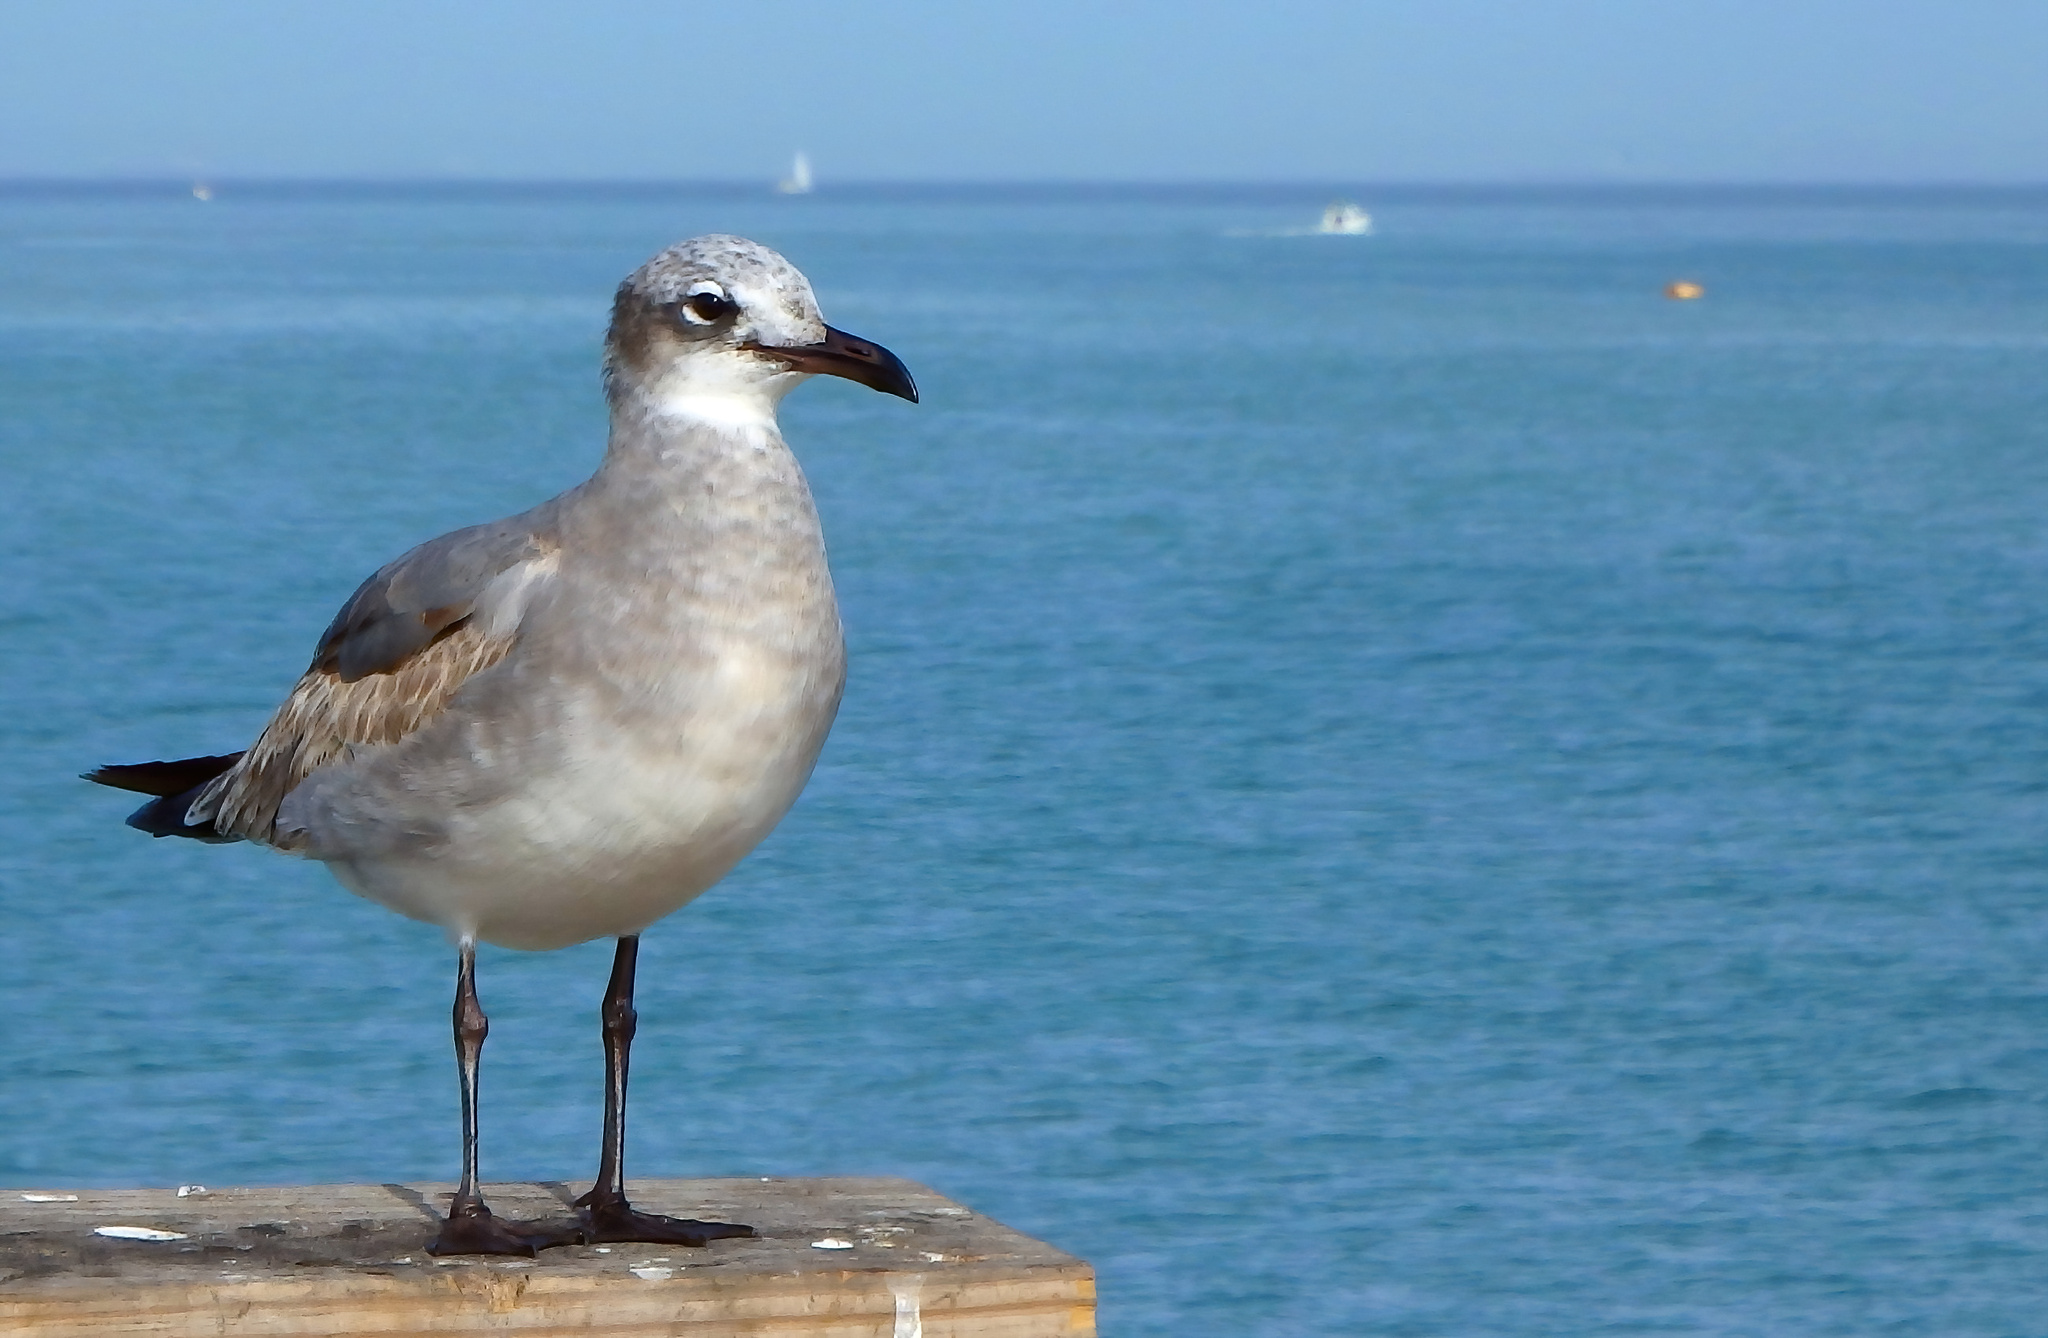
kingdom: Animalia
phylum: Chordata
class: Aves
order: Charadriiformes
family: Laridae
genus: Leucophaeus
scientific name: Leucophaeus atricilla
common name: Laughing gull
